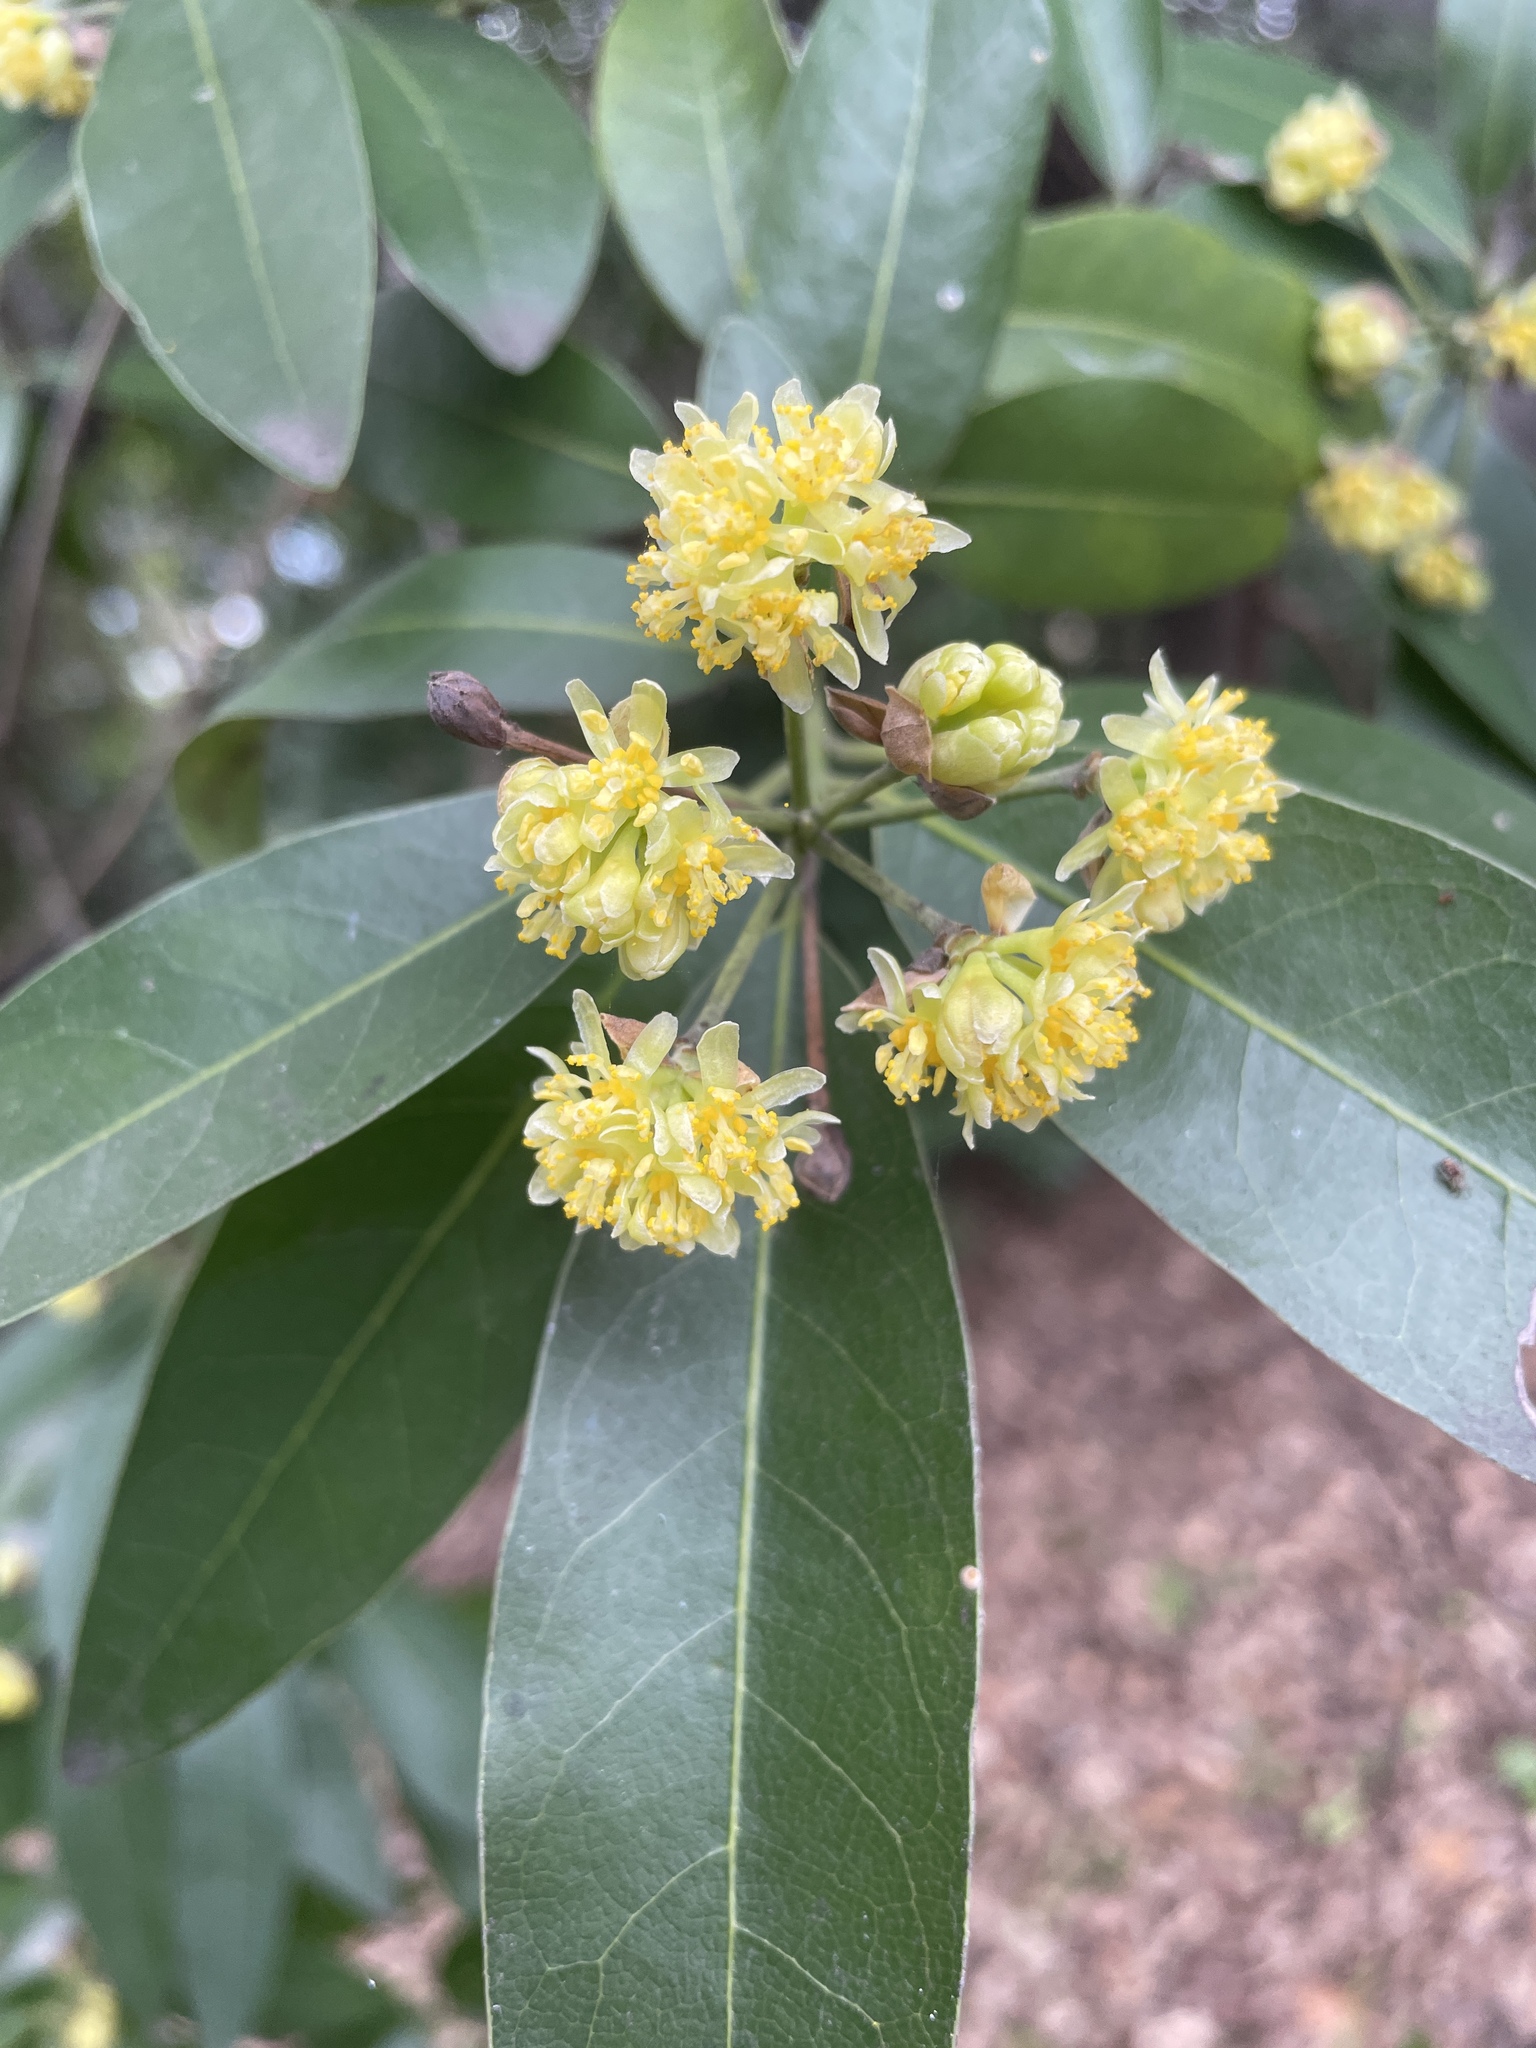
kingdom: Plantae
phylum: Tracheophyta
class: Magnoliopsida
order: Laurales
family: Lauraceae
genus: Umbellularia
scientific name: Umbellularia californica
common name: California bay
